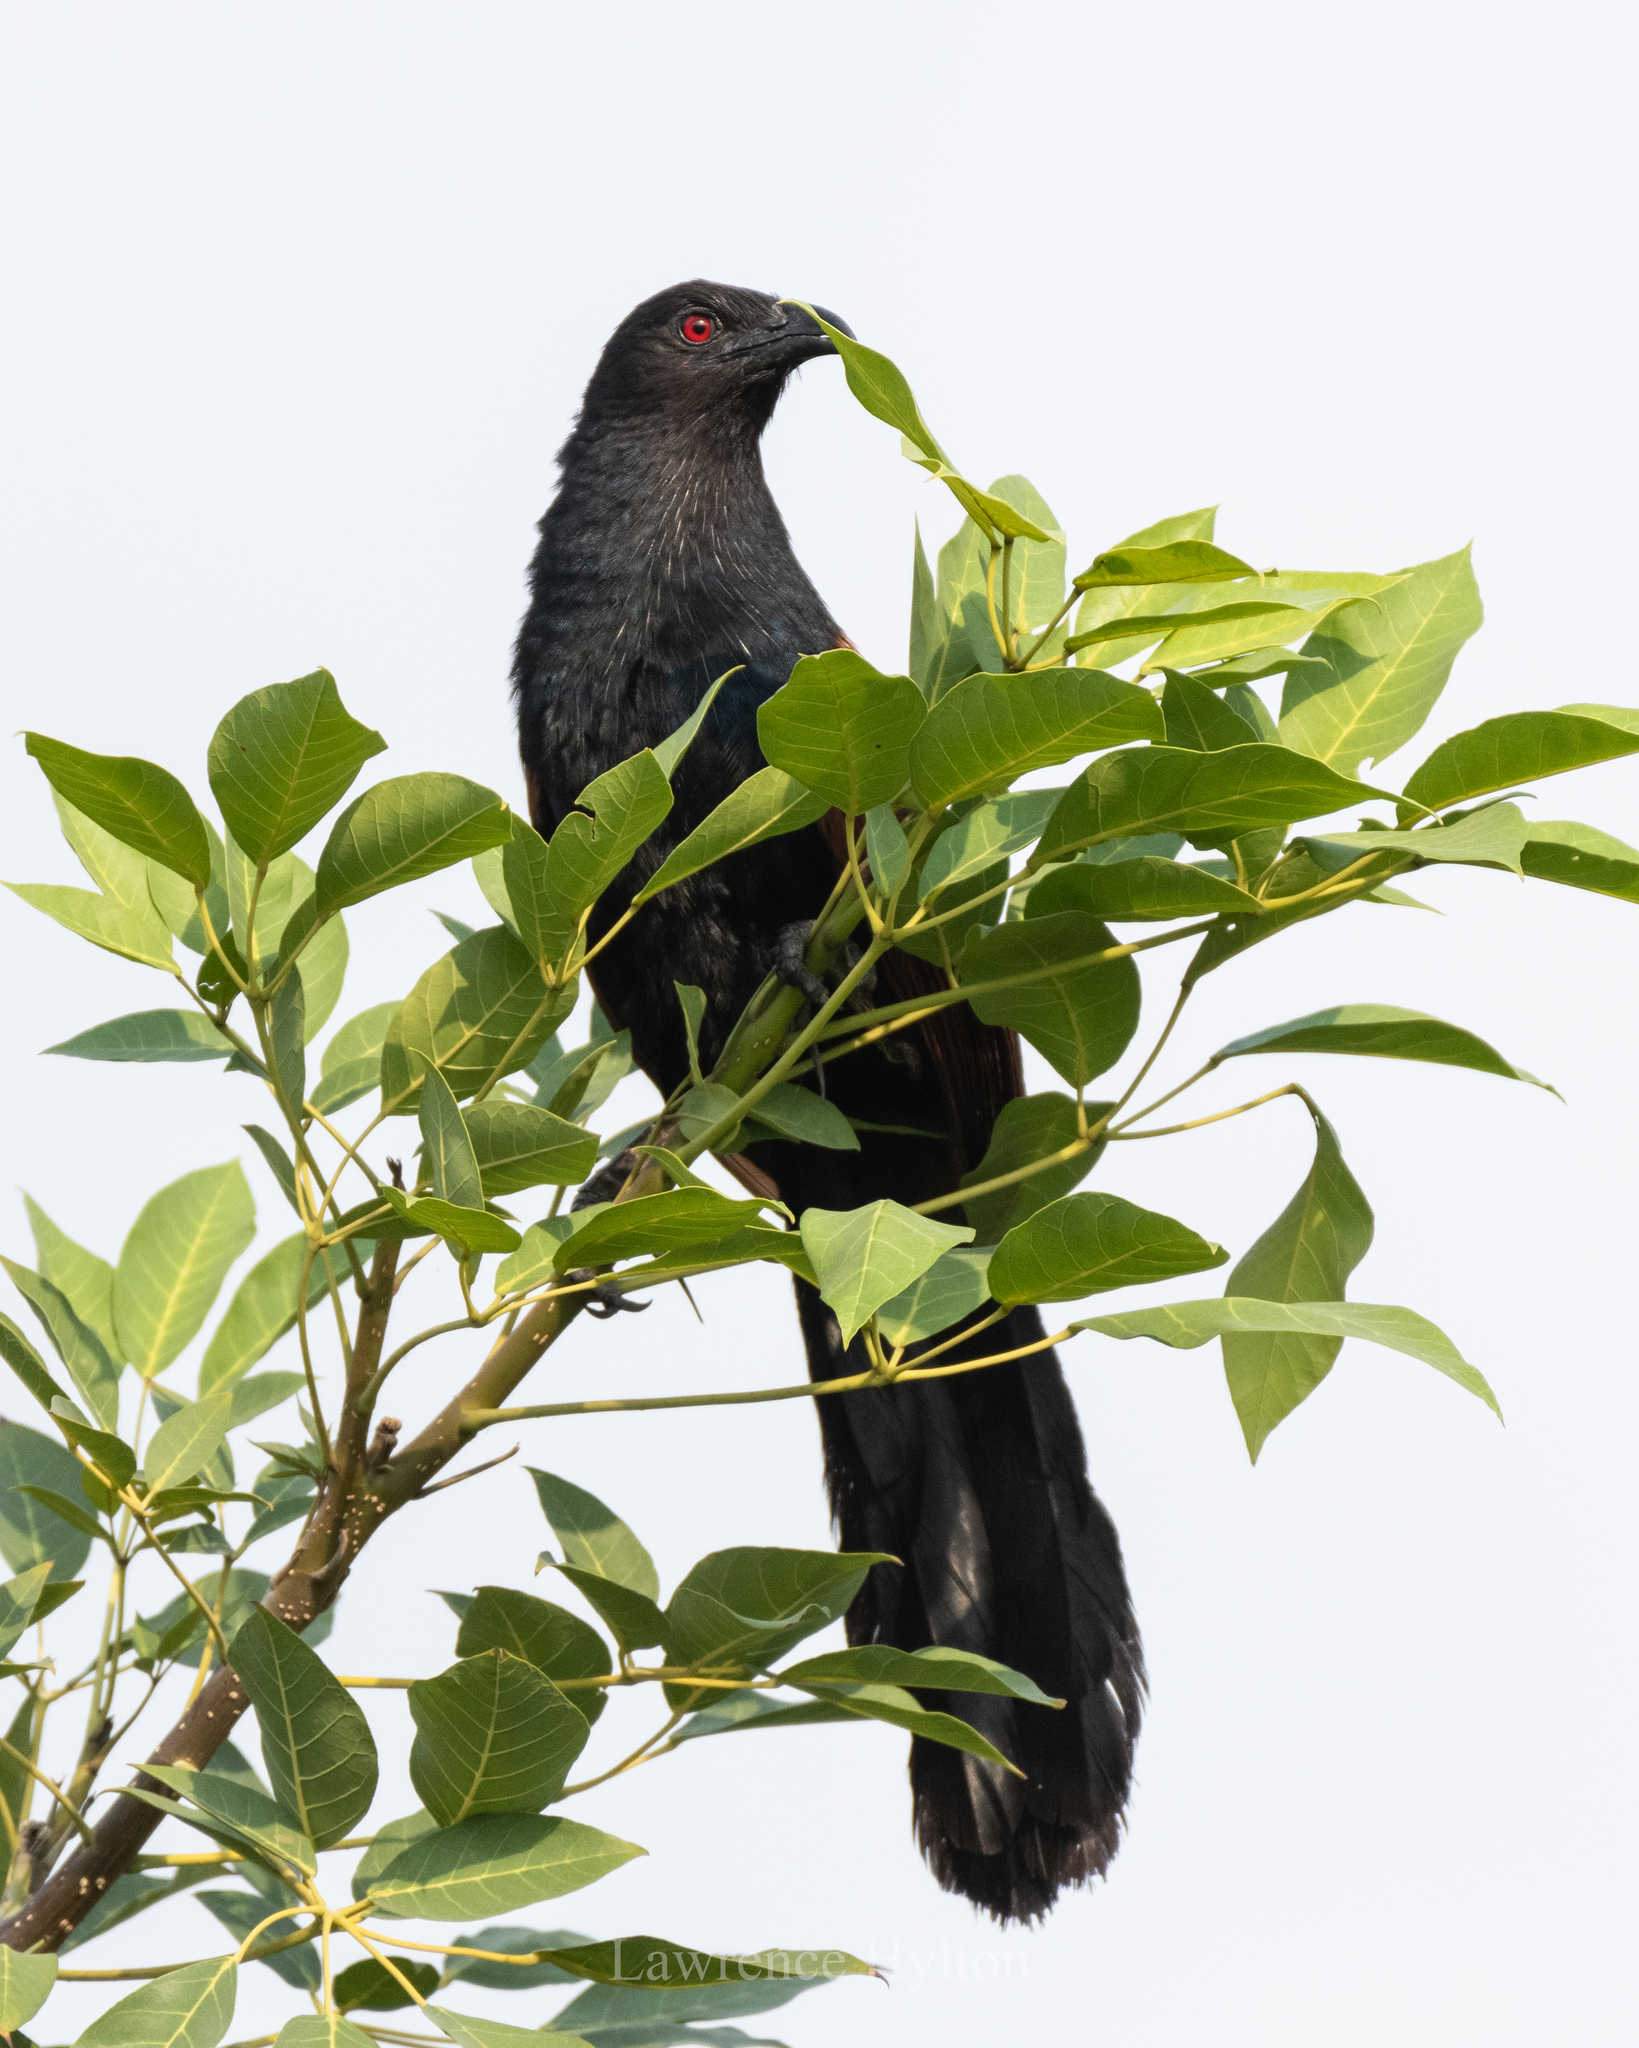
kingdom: Animalia
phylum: Chordata
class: Aves
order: Cuculiformes
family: Cuculidae
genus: Centropus
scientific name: Centropus sinensis
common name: Greater coucal
